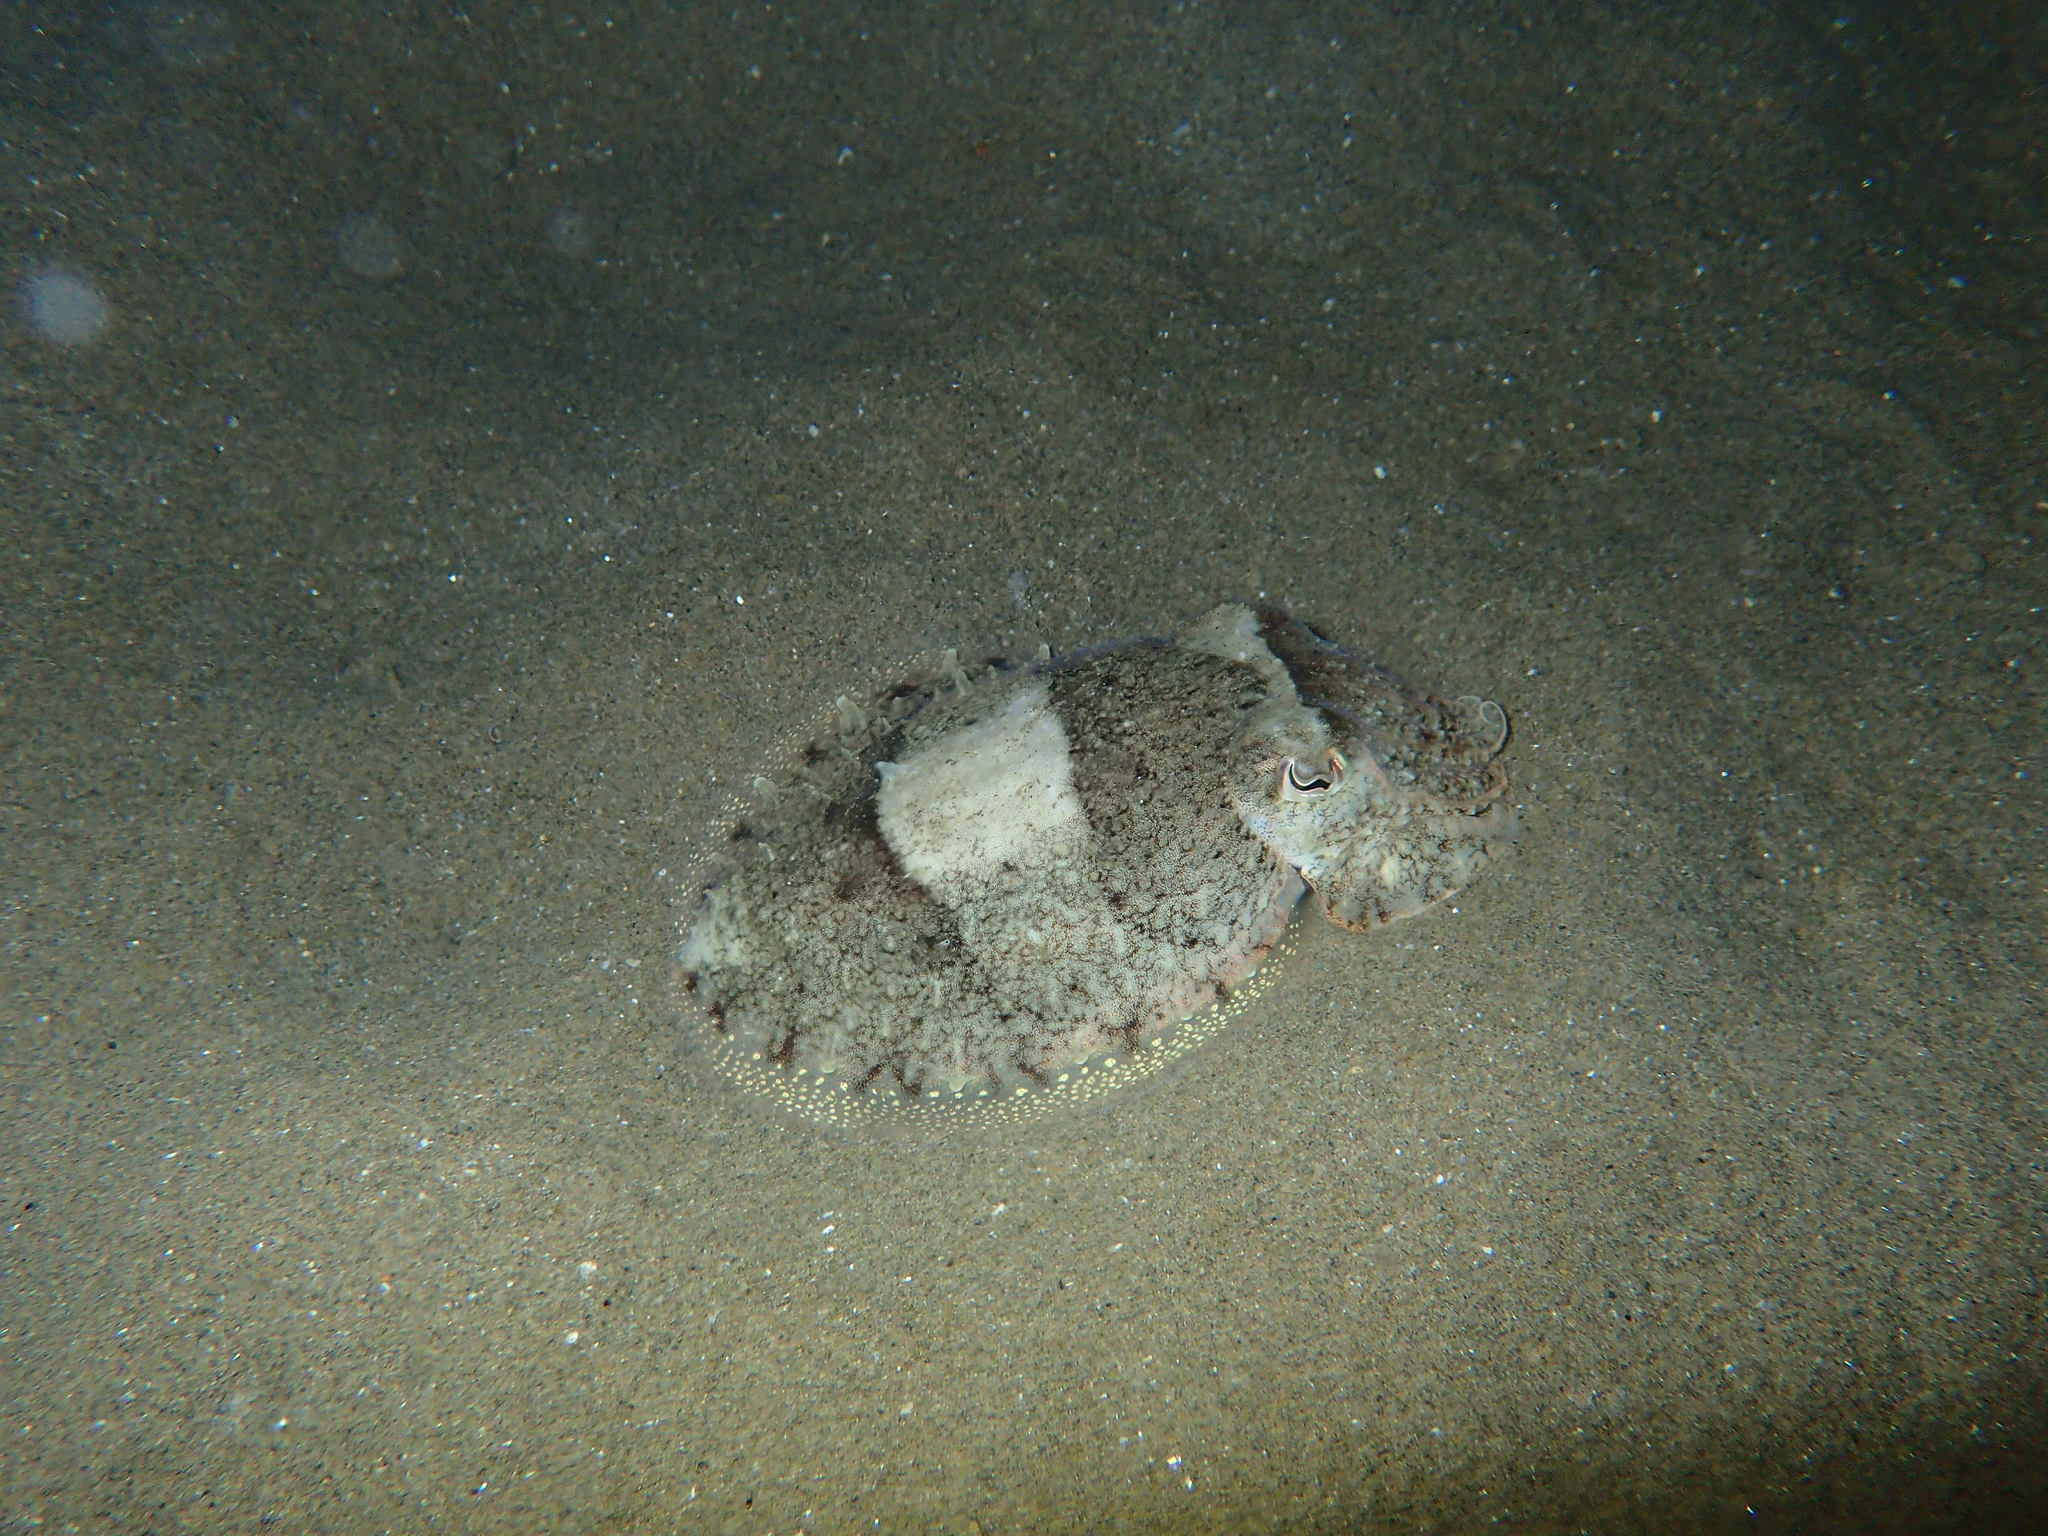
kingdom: Animalia
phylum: Mollusca
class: Cephalopoda
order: Sepiida
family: Sepiidae
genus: Sepia
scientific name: Sepia officinalis
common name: Common cuttlefish
